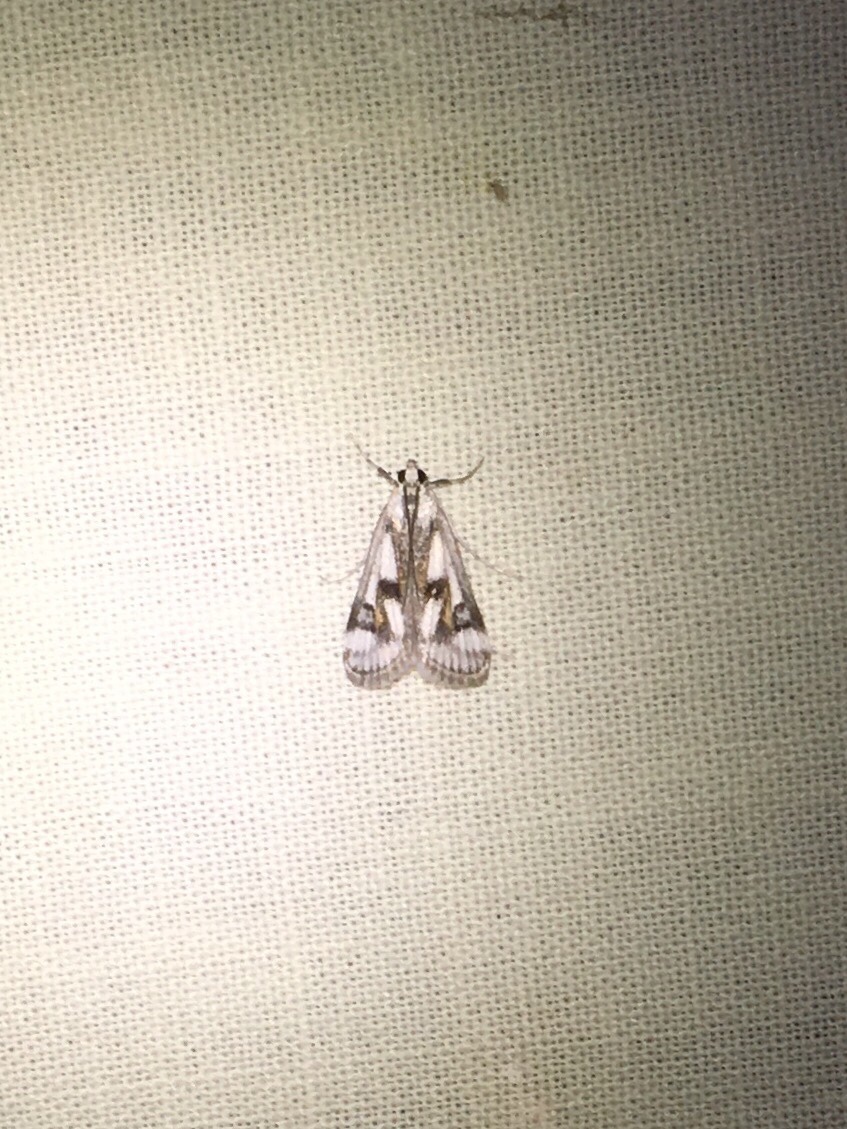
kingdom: Animalia
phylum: Arthropoda
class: Insecta
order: Lepidoptera
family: Crambidae
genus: Parapoynx
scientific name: Parapoynx maculalis
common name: Polymorphic pondweed moth
